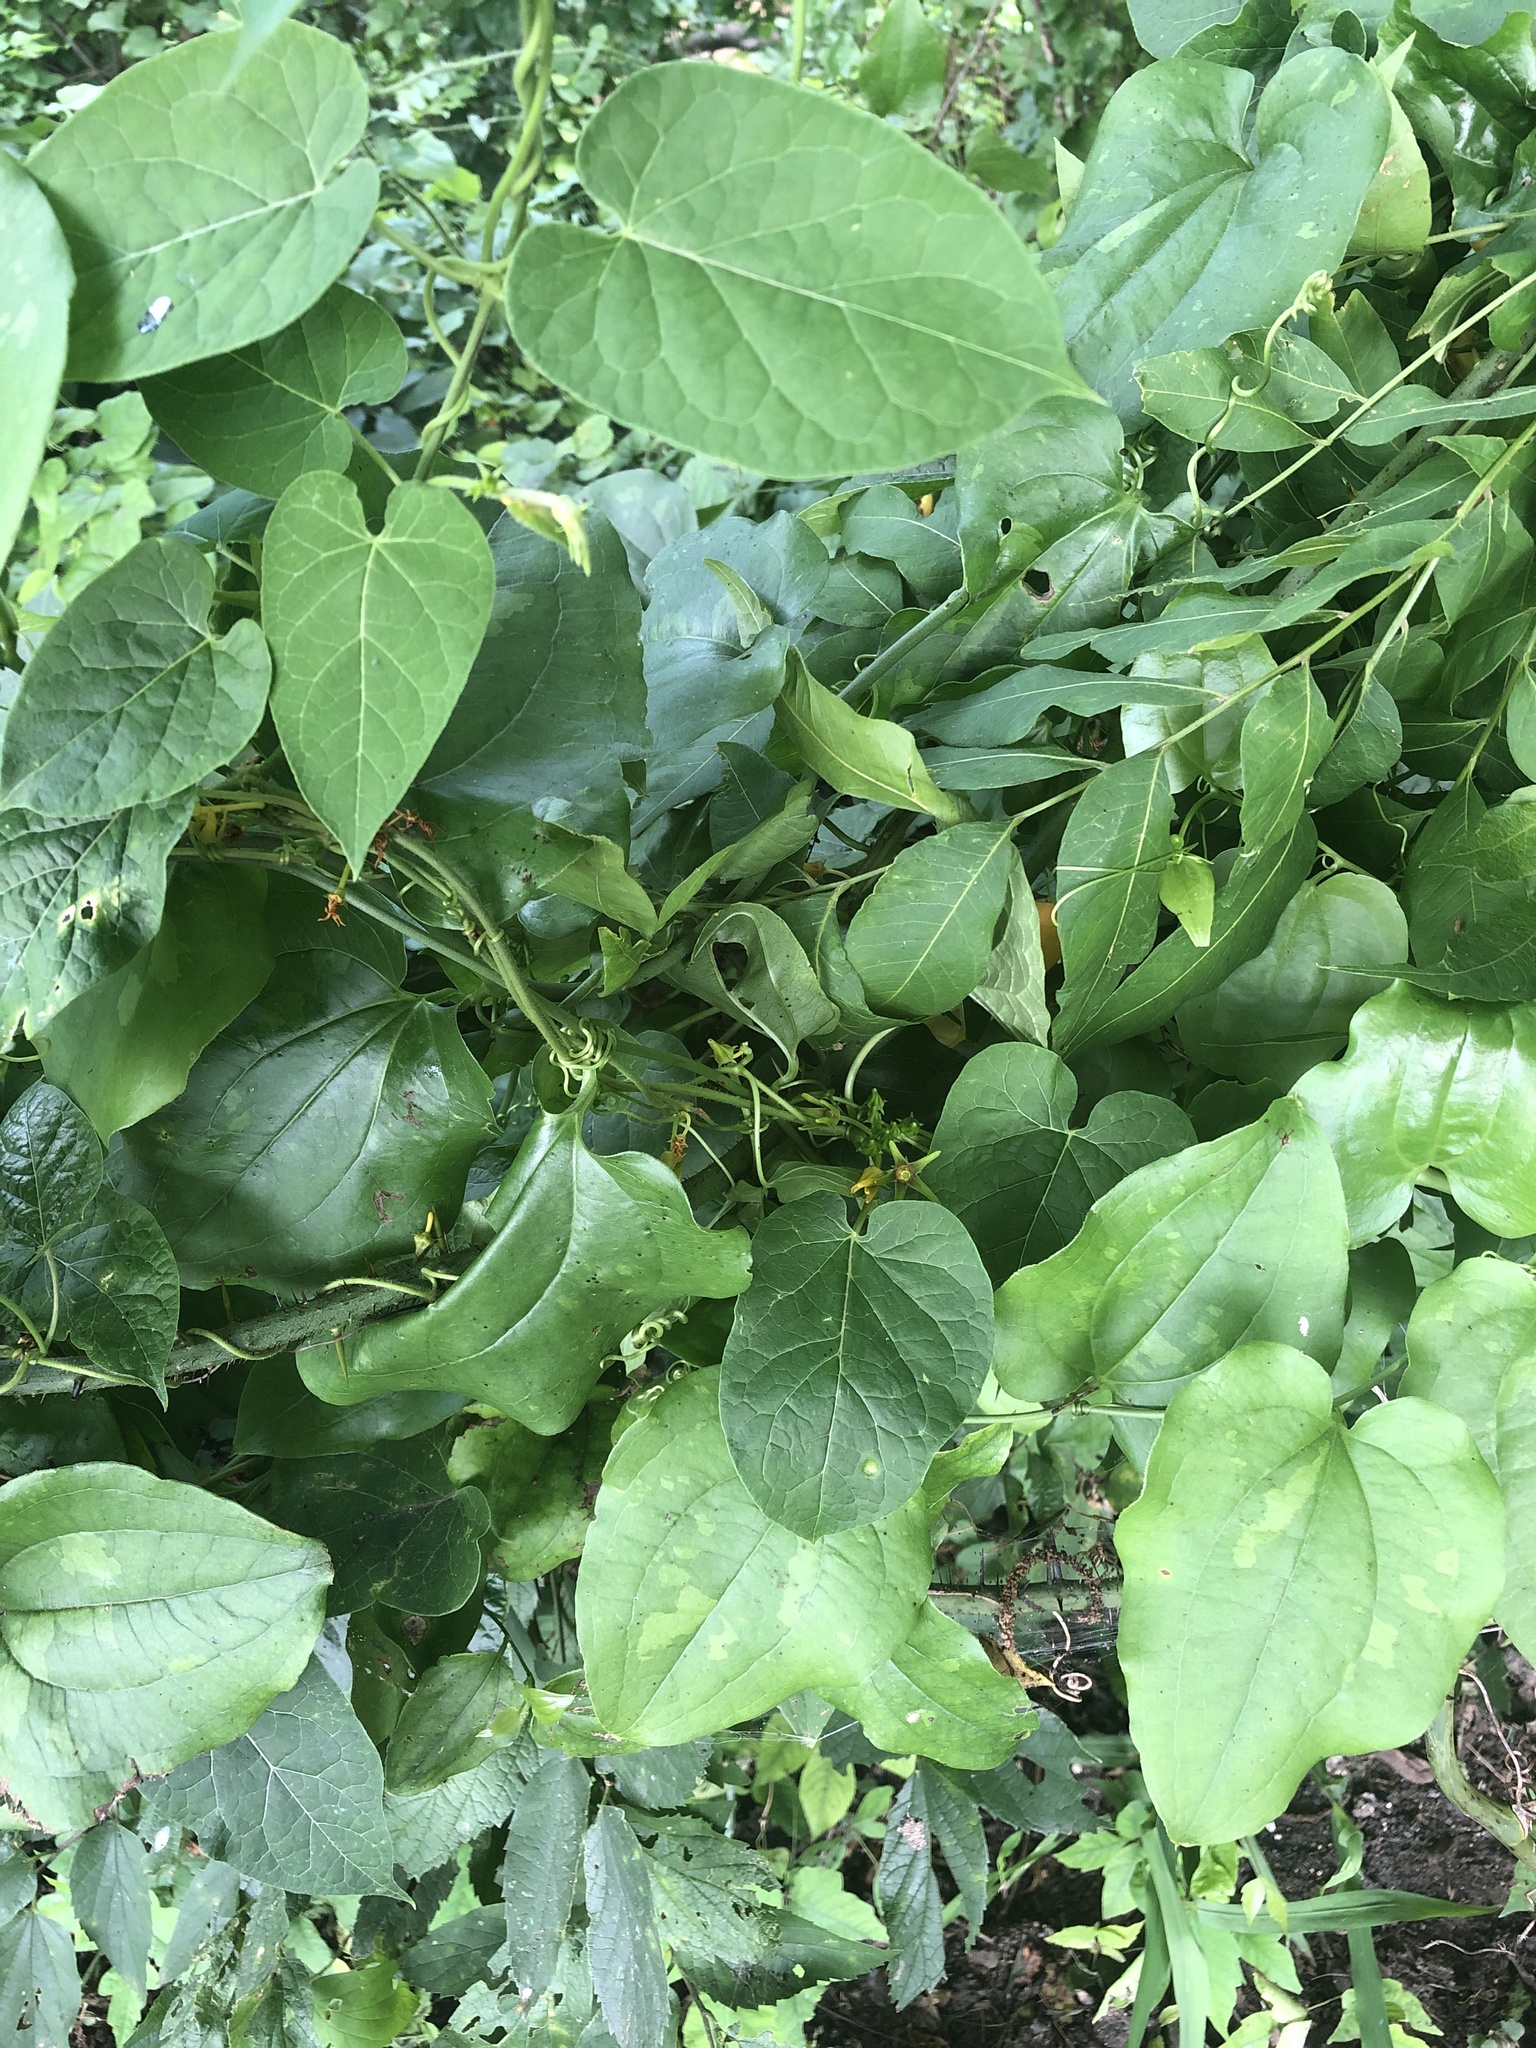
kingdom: Plantae
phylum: Tracheophyta
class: Magnoliopsida
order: Gentianales
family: Apocynaceae
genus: Gonolobus
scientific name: Gonolobus suberosus
